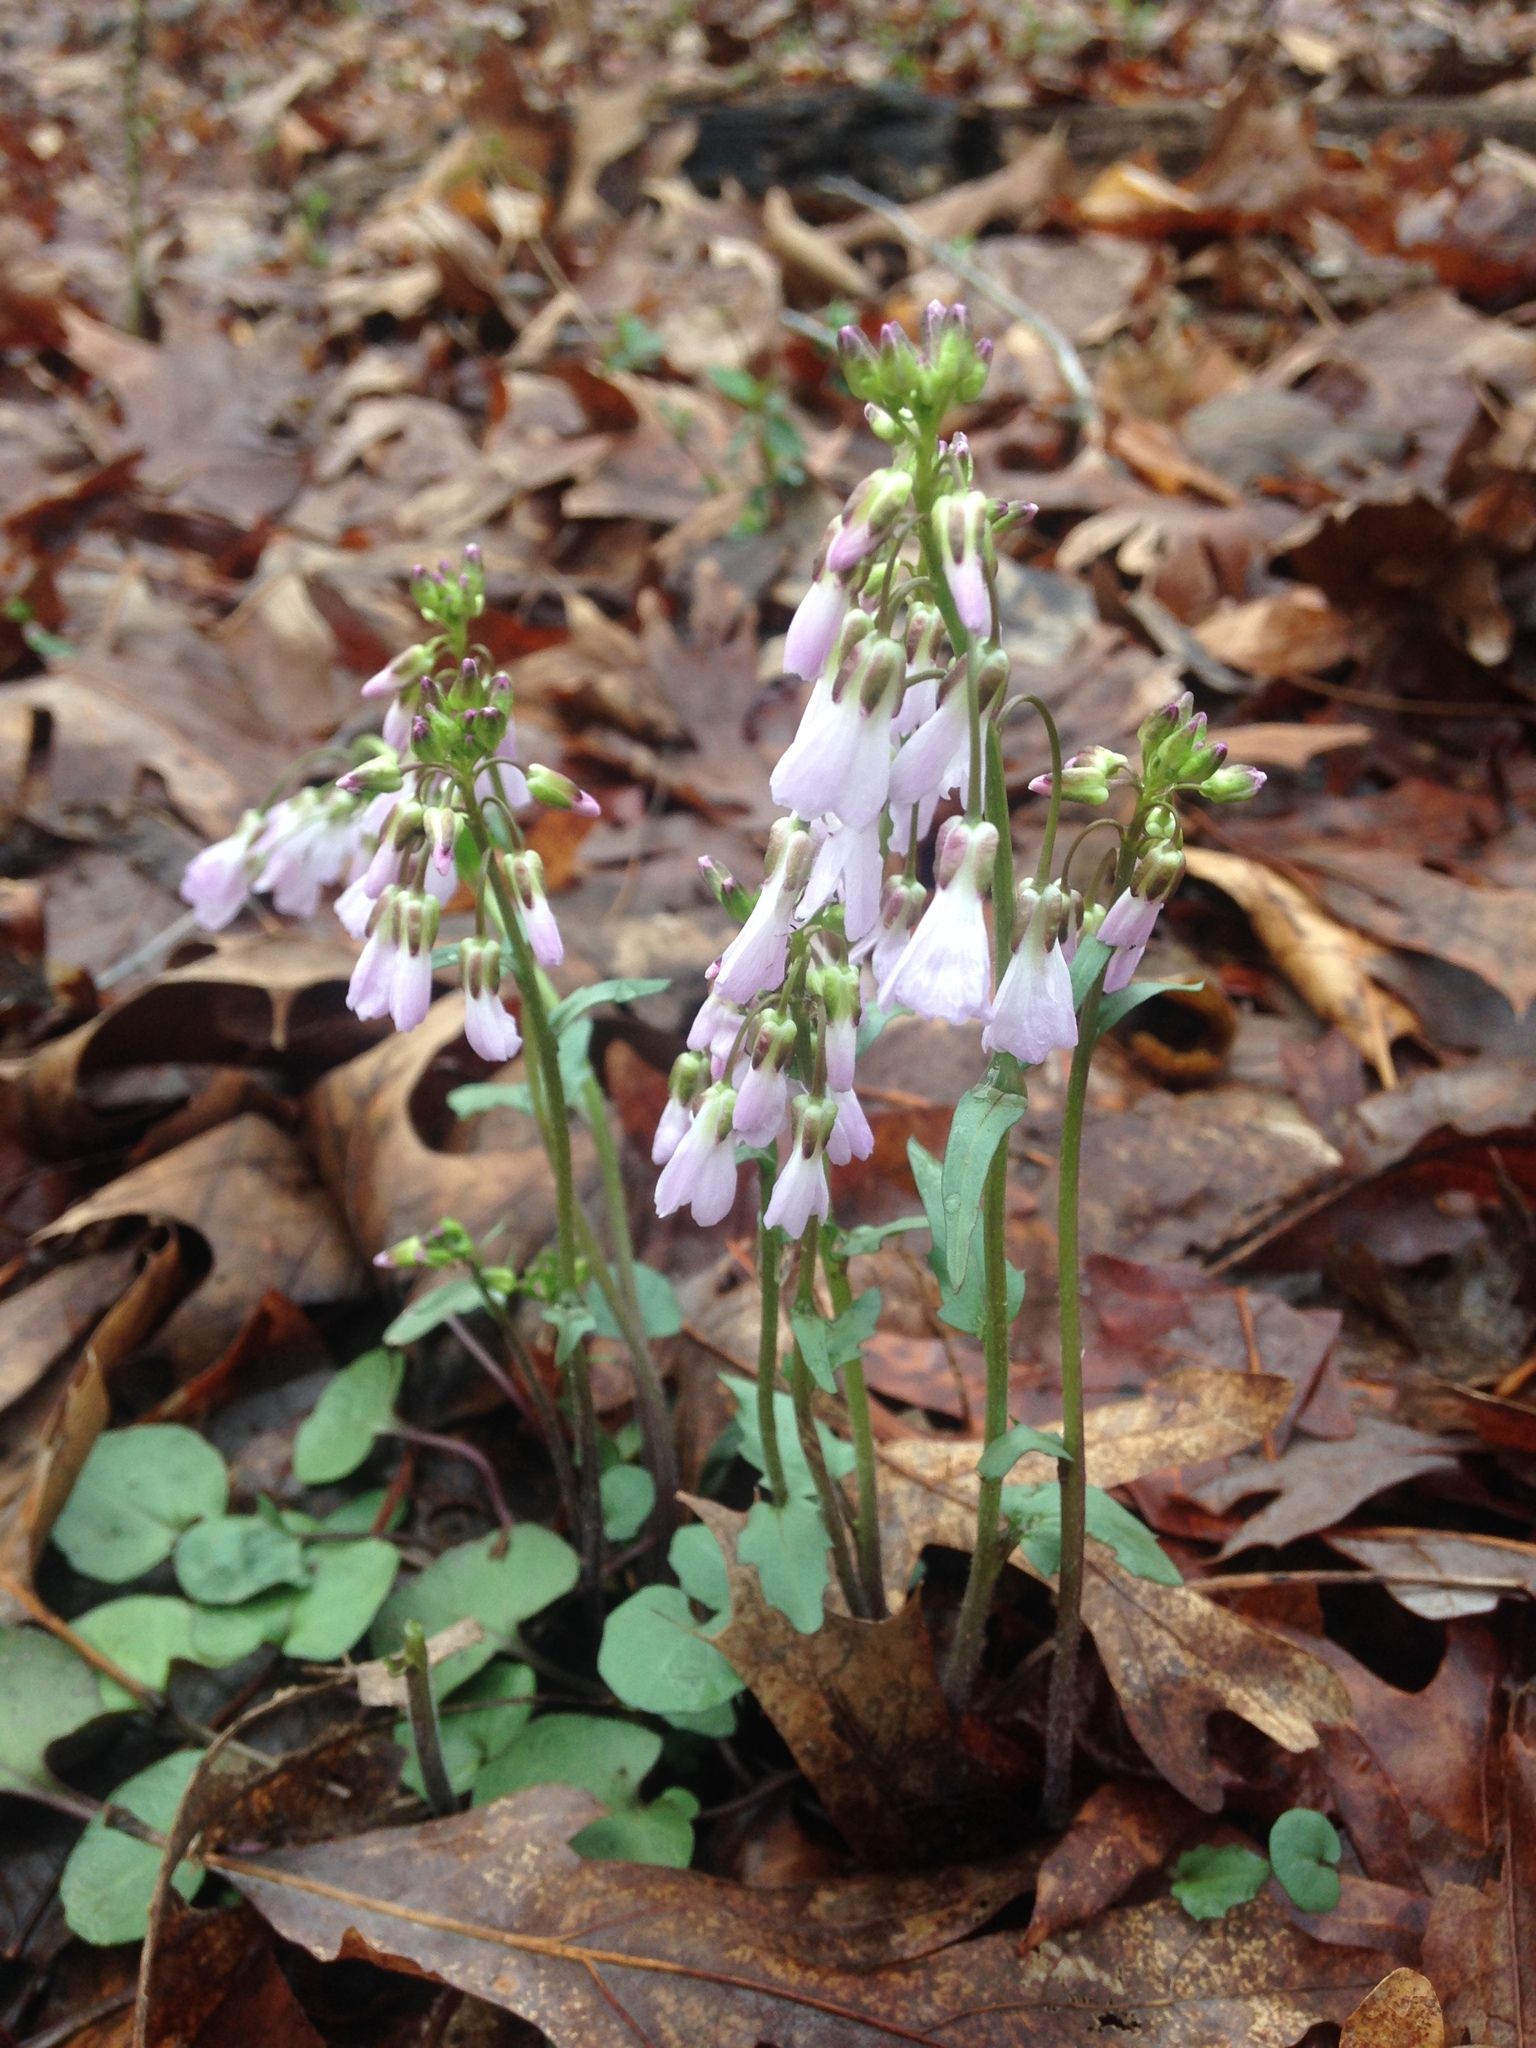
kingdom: Plantae
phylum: Tracheophyta
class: Magnoliopsida
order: Brassicales
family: Brassicaceae
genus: Cardamine
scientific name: Cardamine douglassii
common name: Purple cress
